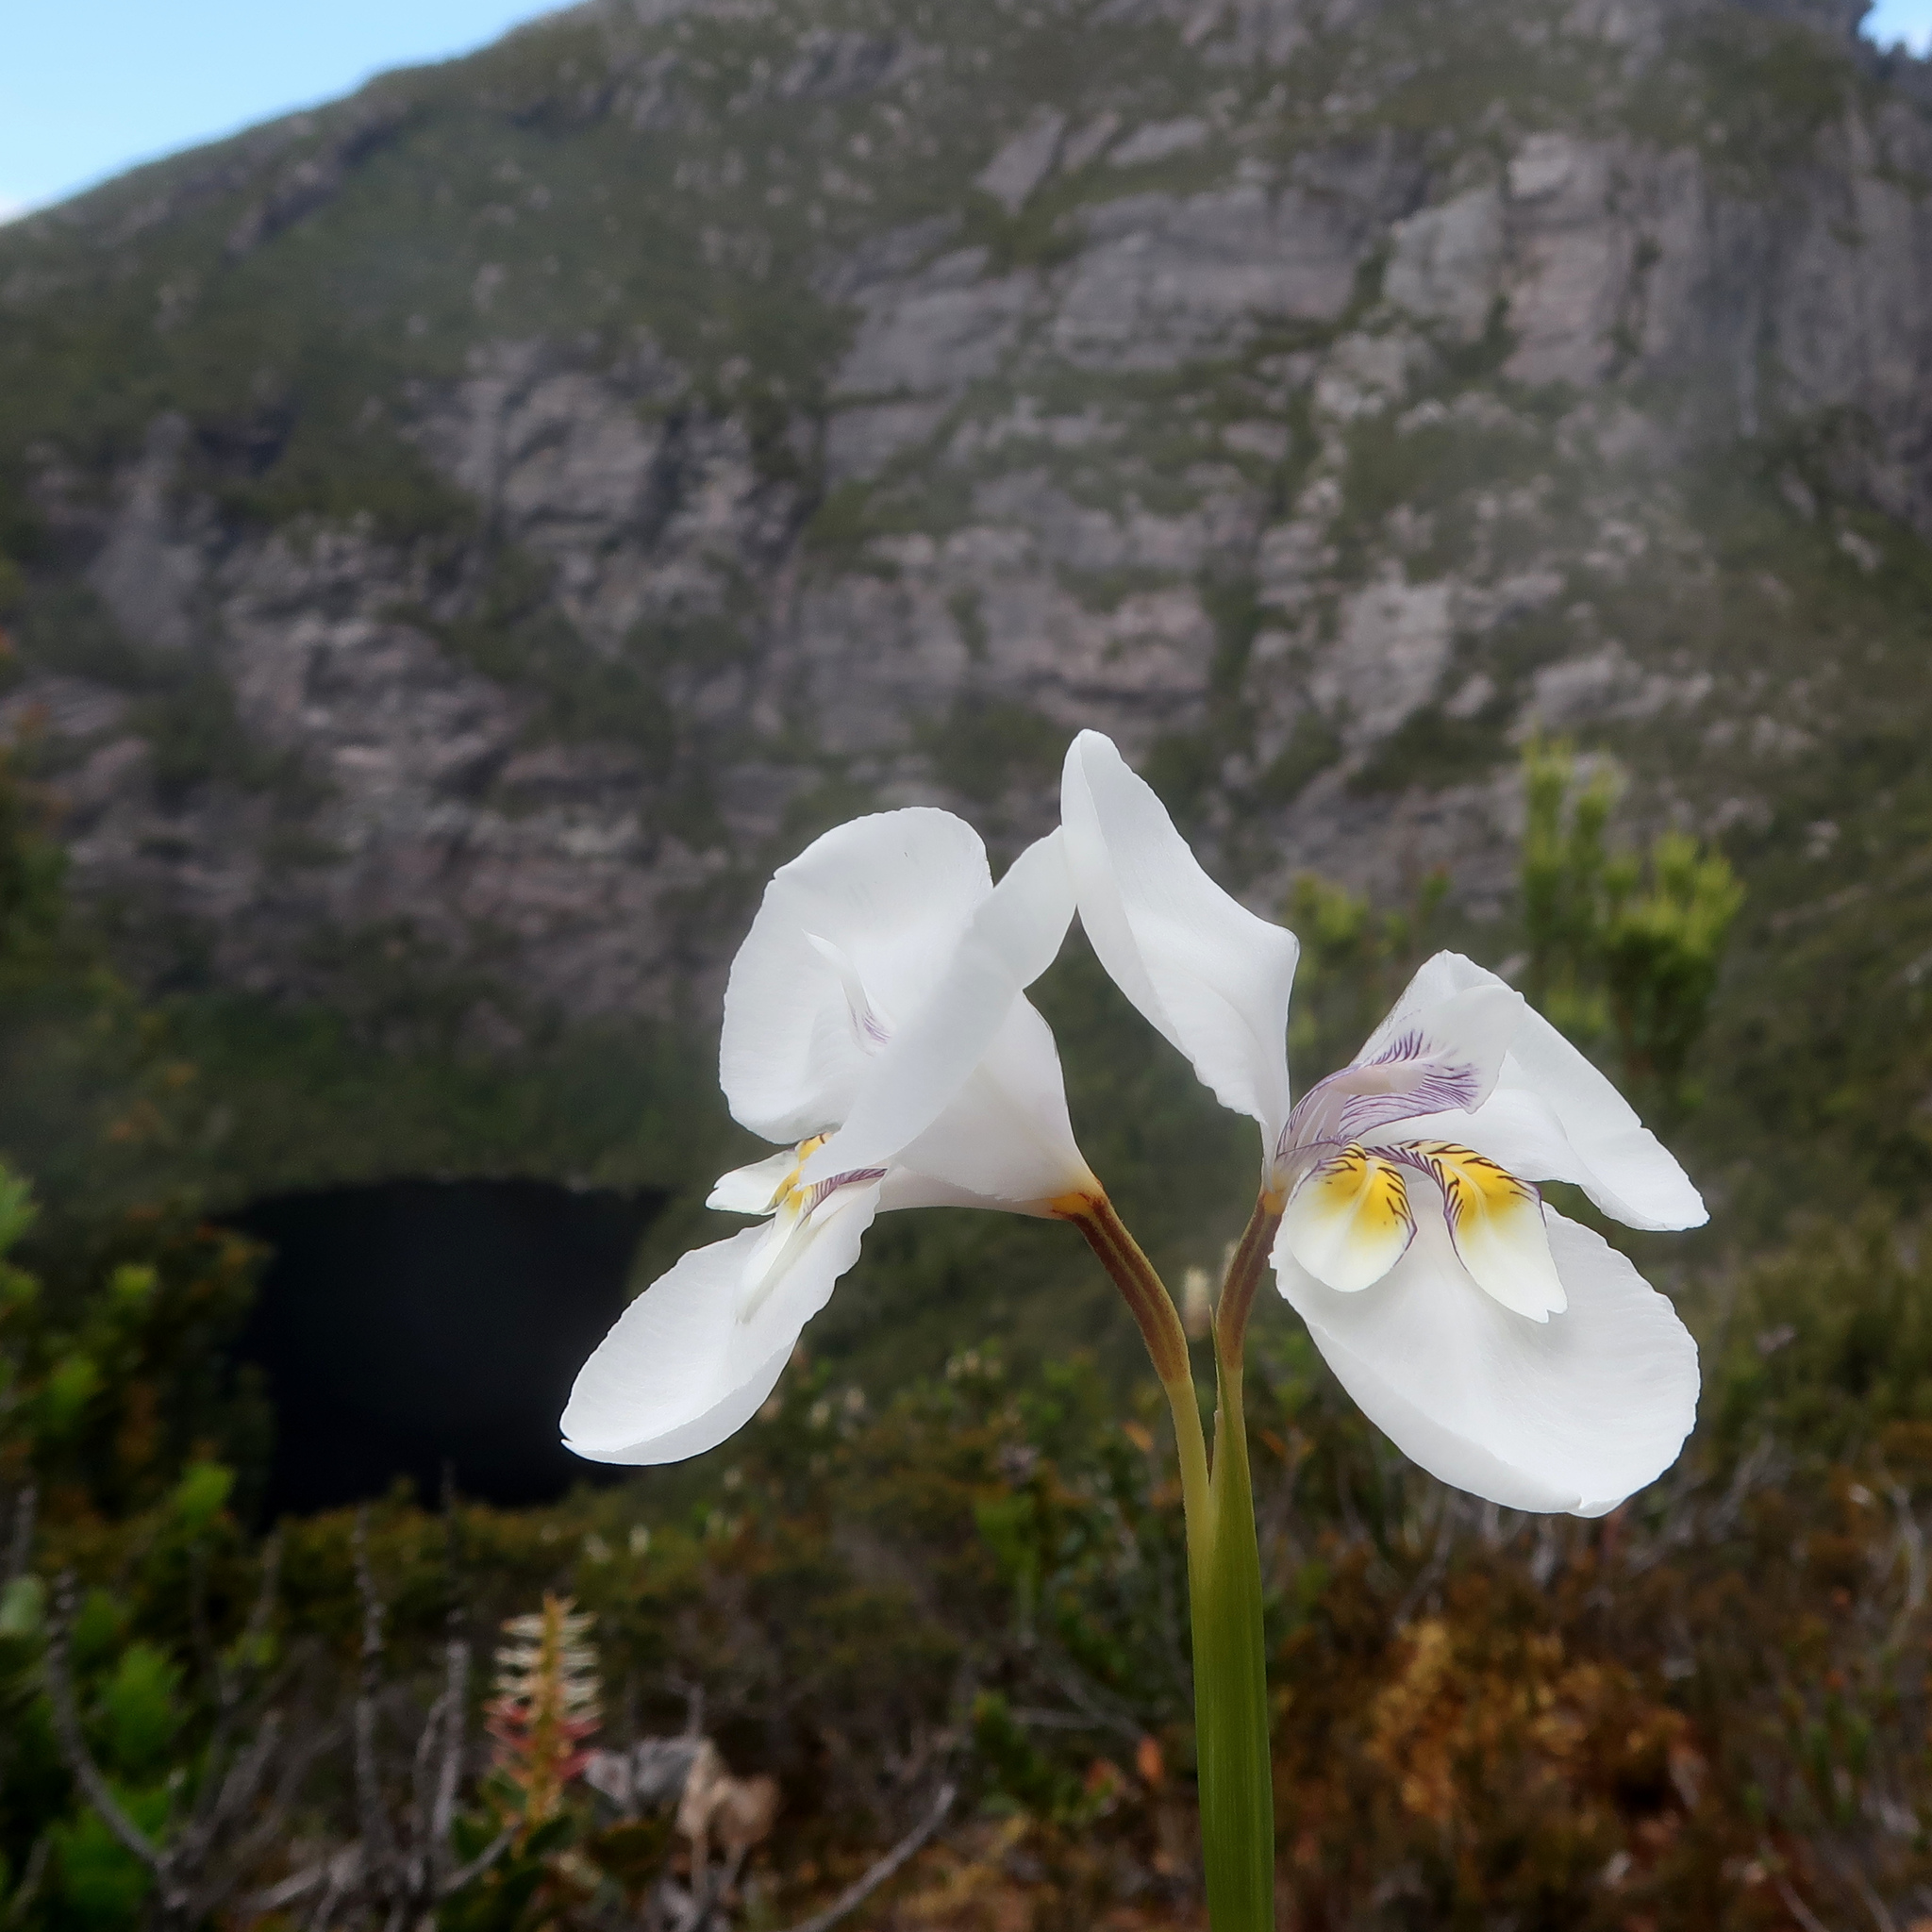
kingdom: Plantae
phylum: Tracheophyta
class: Liliopsida
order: Asparagales
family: Iridaceae
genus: Diplarrena
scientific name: Diplarrena latifolia
